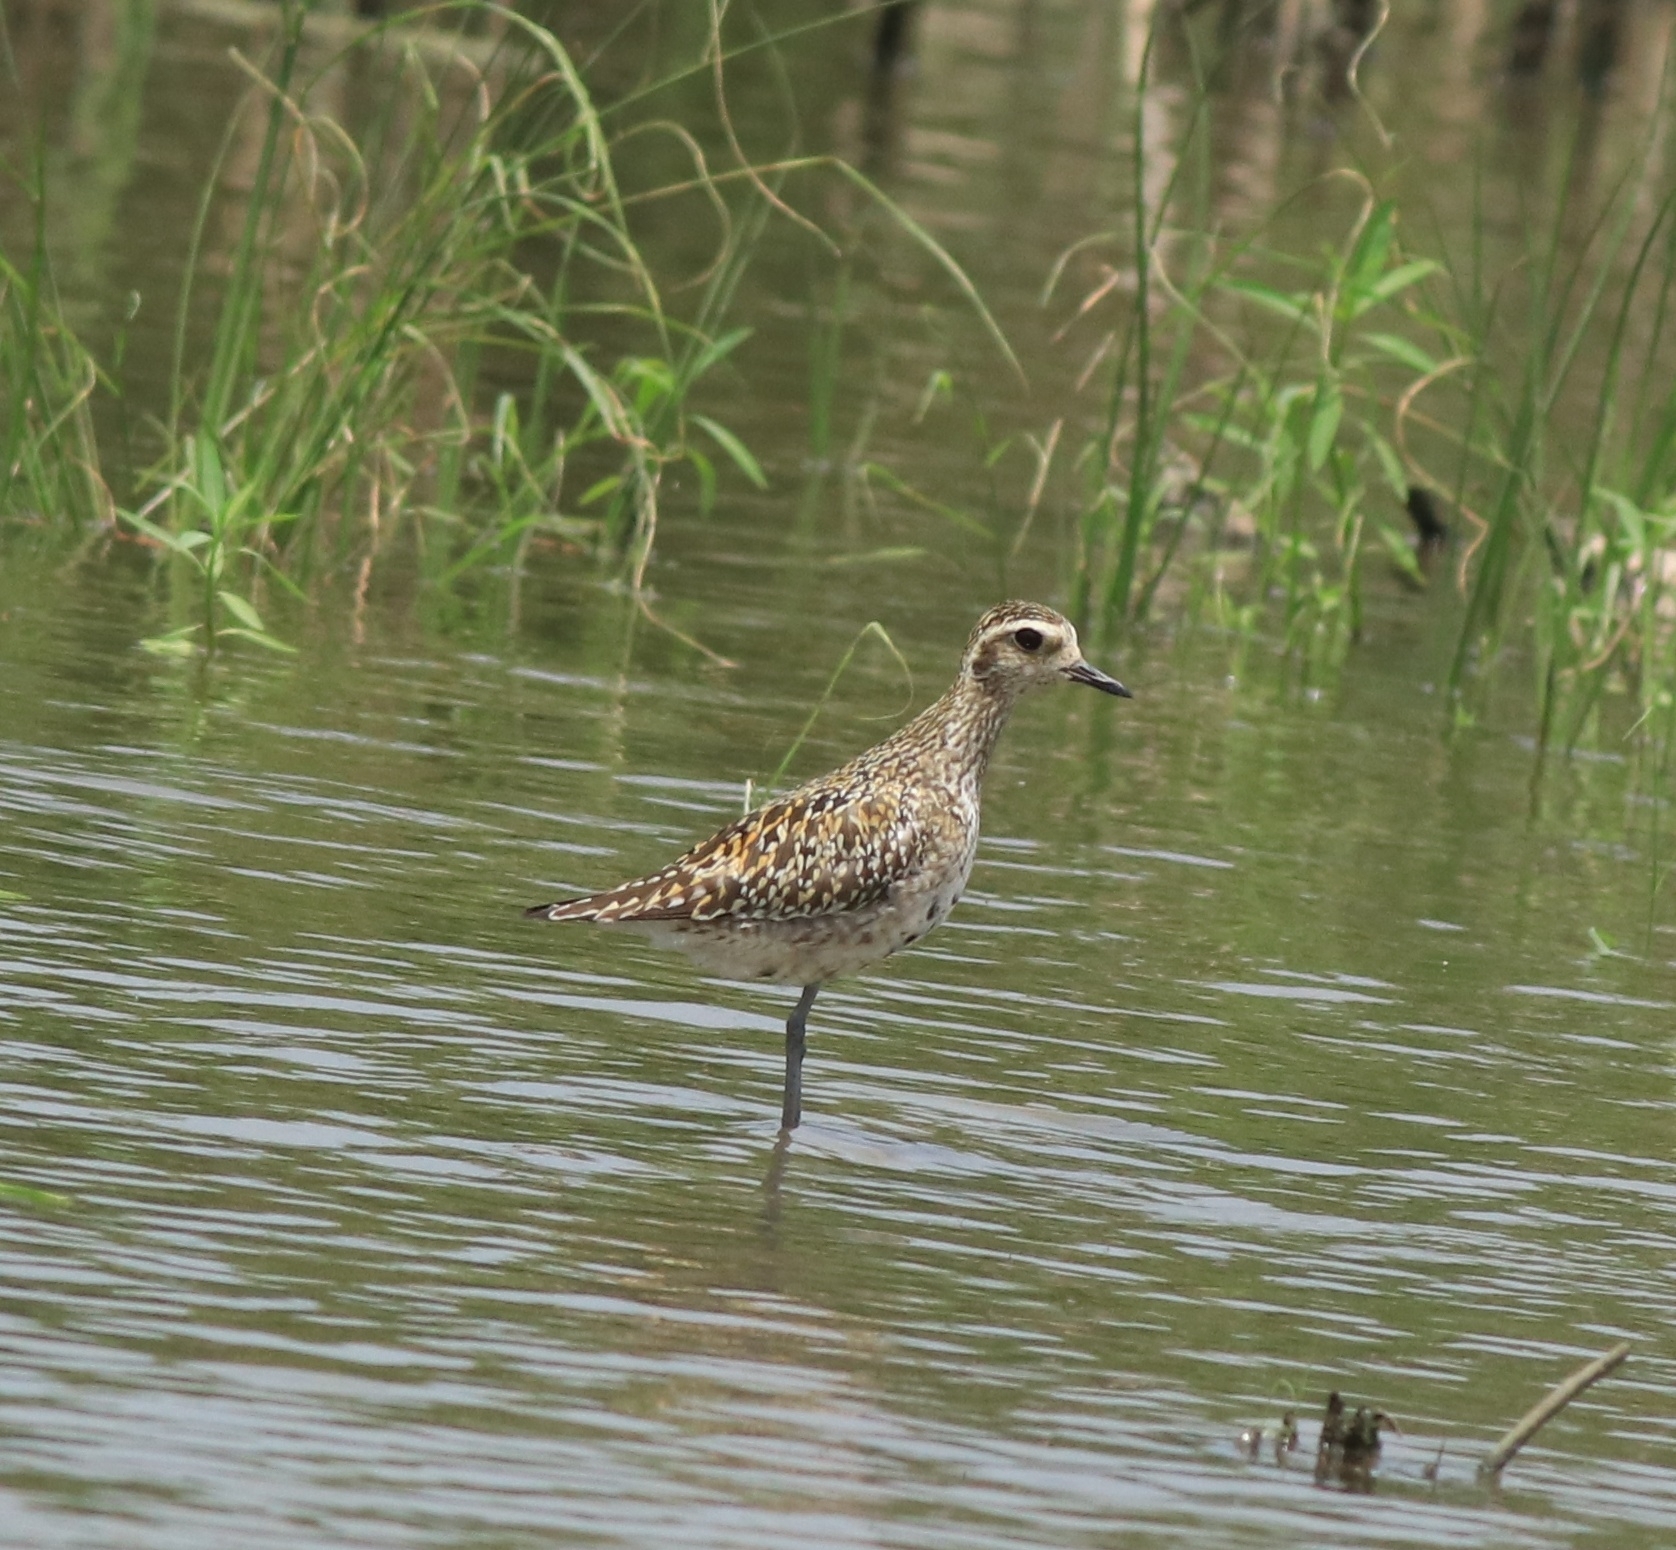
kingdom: Animalia
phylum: Chordata
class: Aves
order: Charadriiformes
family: Charadriidae
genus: Pluvialis
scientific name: Pluvialis fulva
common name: Pacific golden plover
